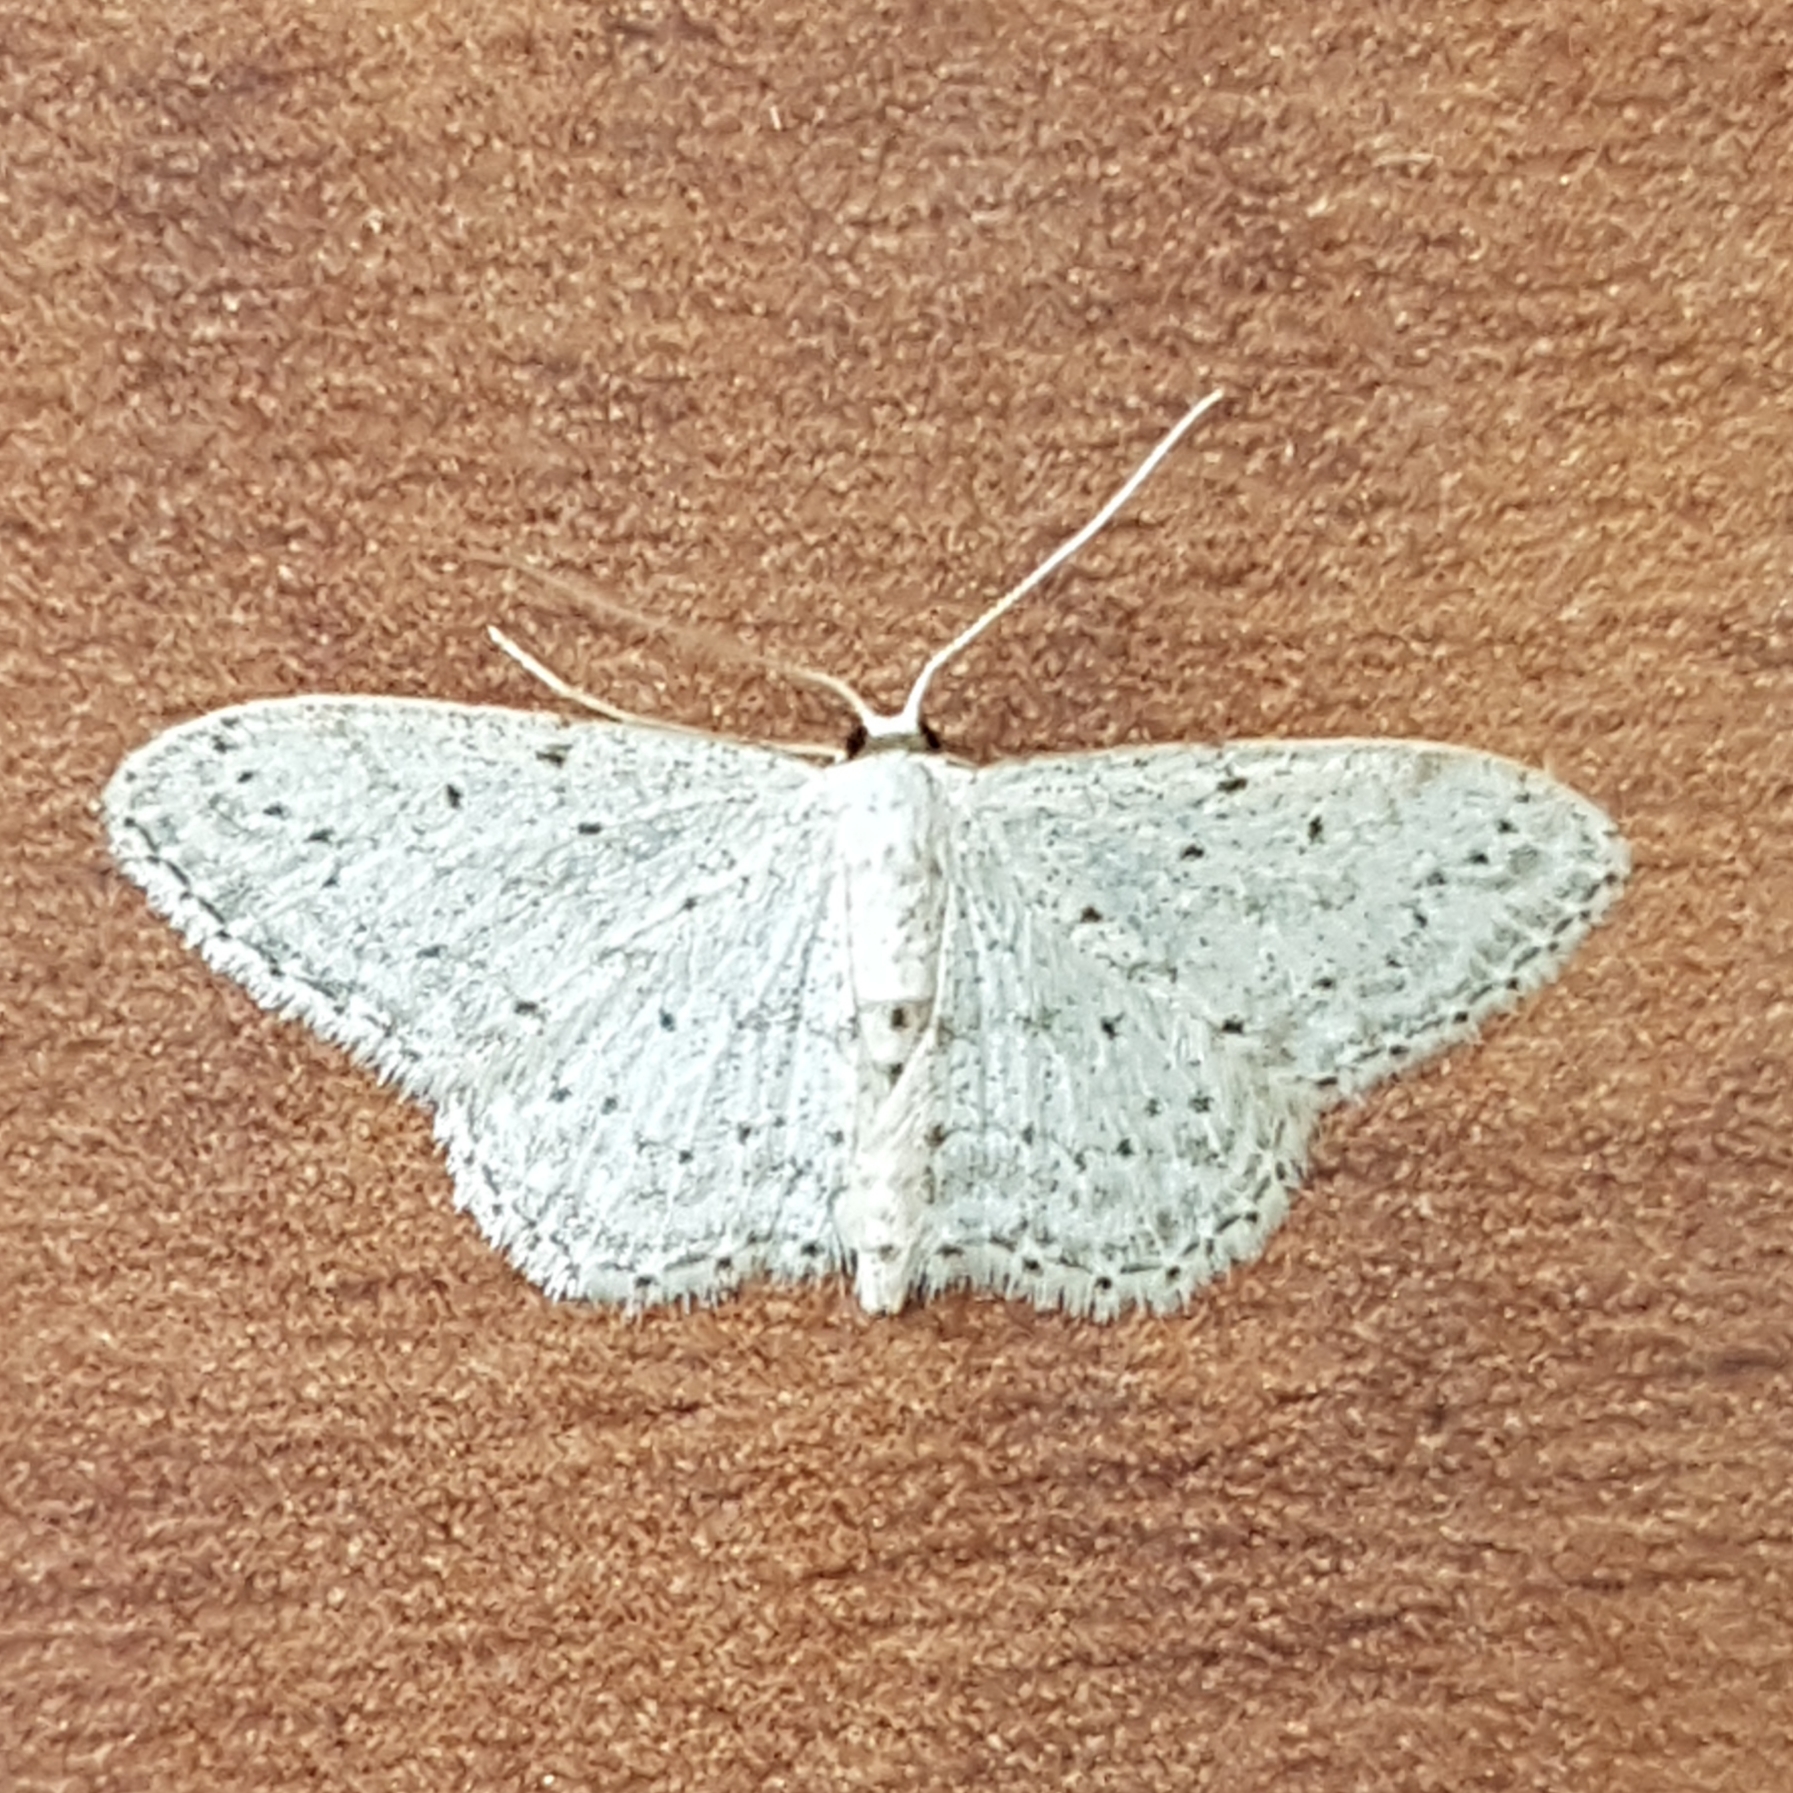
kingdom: Animalia
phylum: Arthropoda
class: Insecta
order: Lepidoptera
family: Geometridae
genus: Idaea
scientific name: Idaea seriata
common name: Small dusty wave
